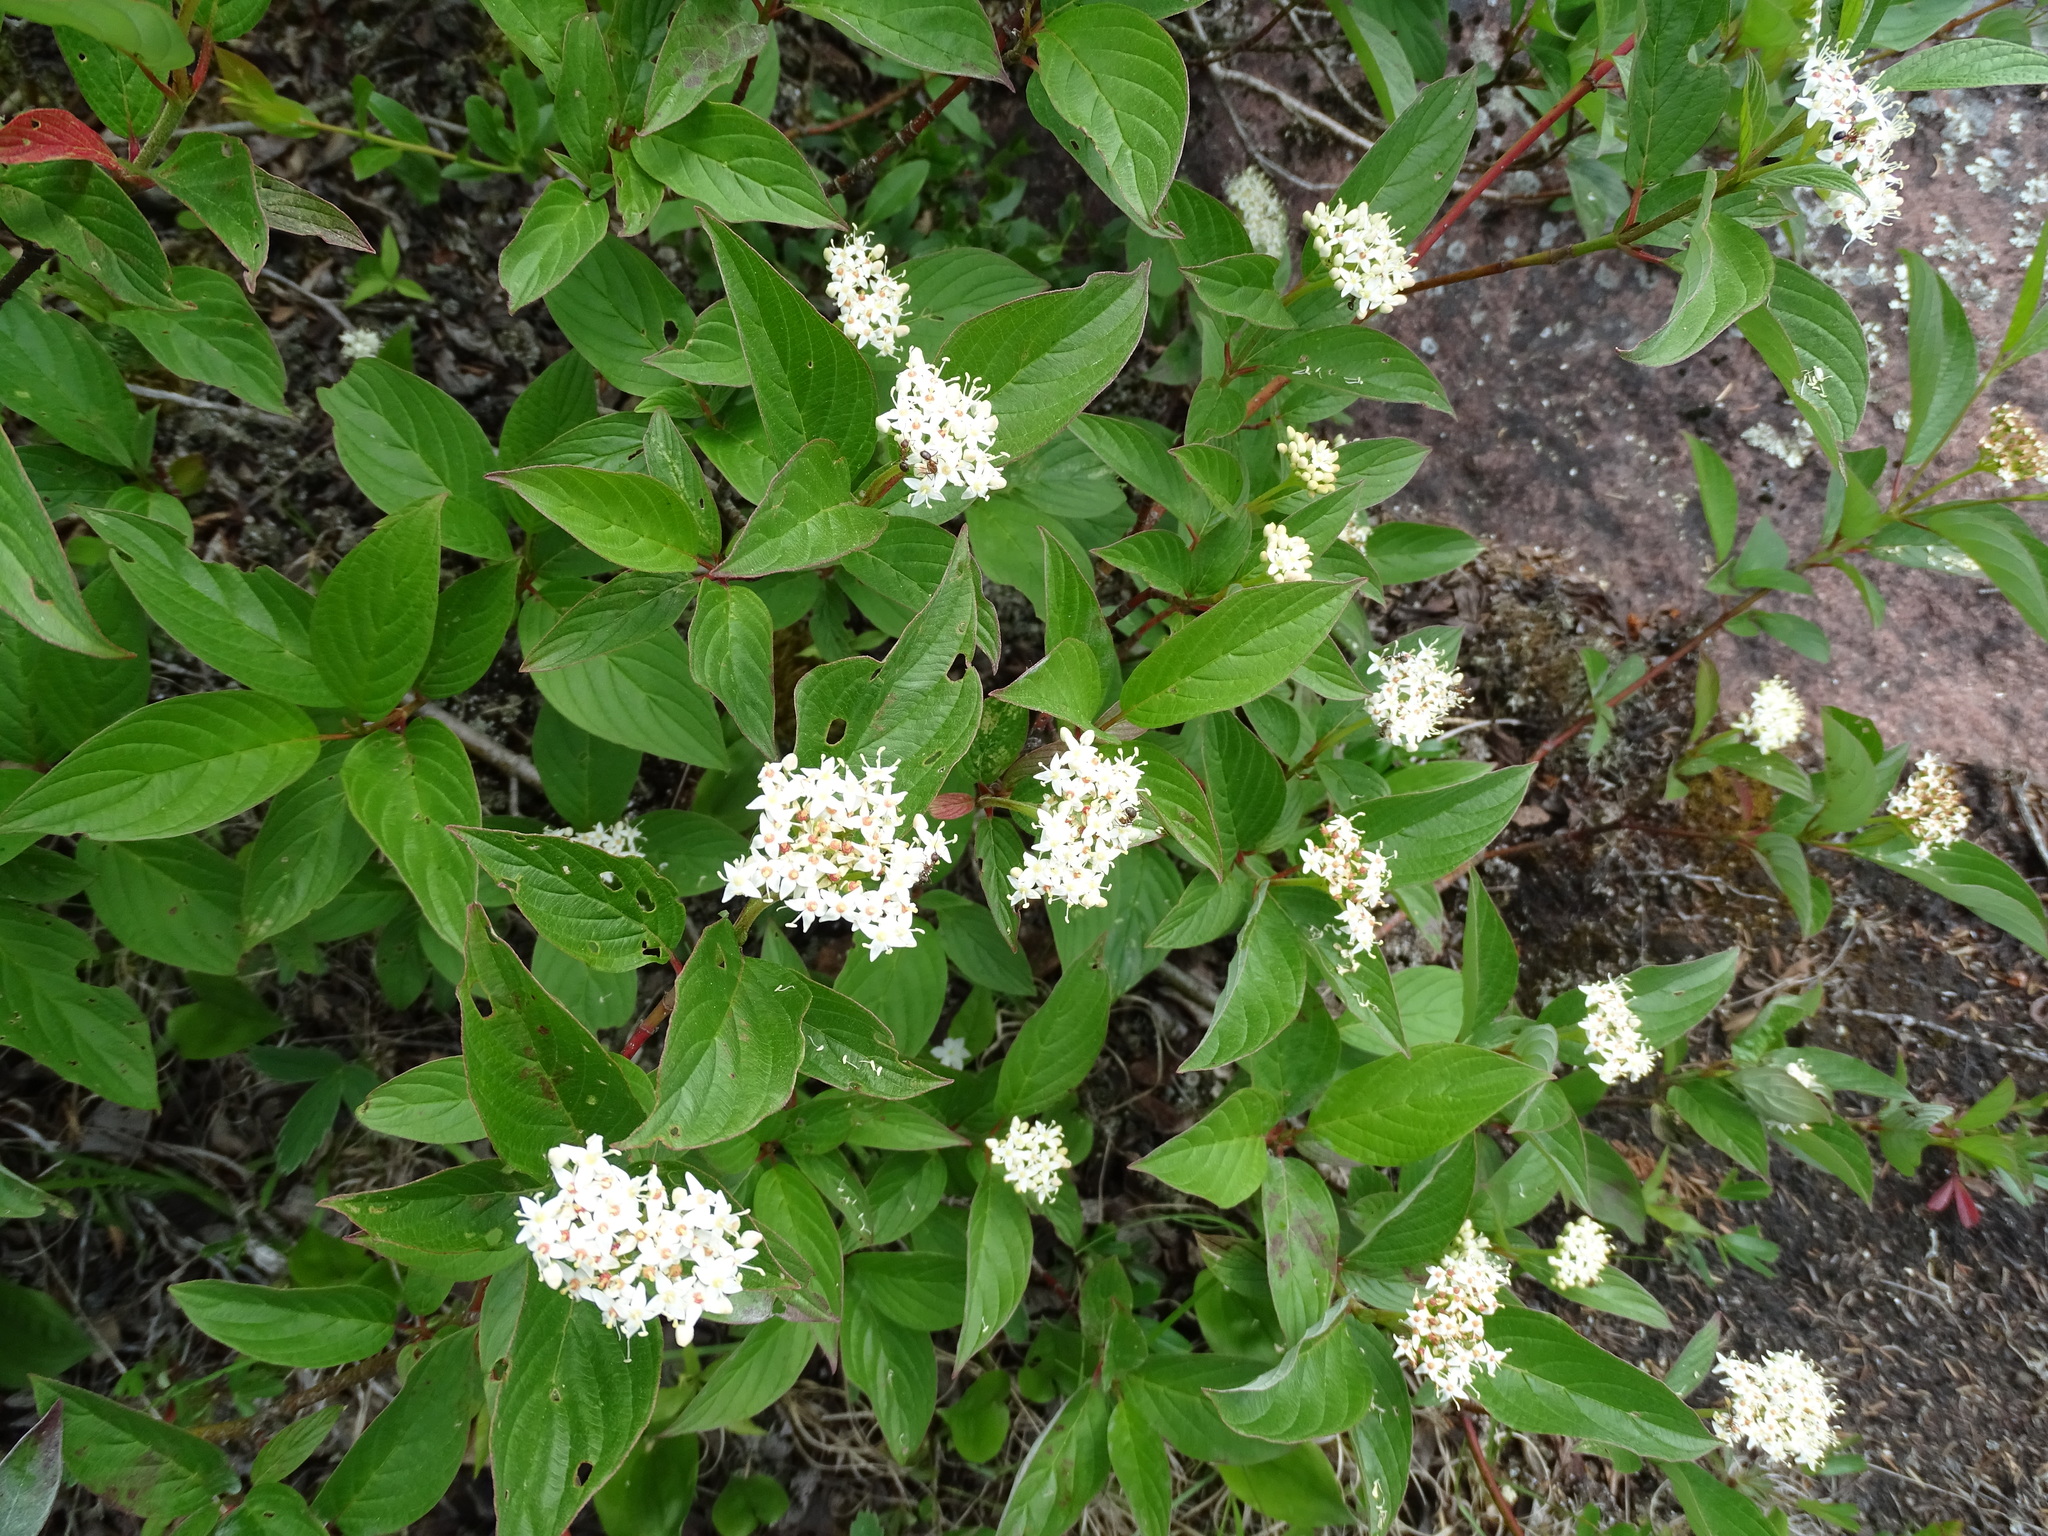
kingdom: Plantae
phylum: Tracheophyta
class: Magnoliopsida
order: Cornales
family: Cornaceae
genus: Cornus
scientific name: Cornus sericea
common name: Red-osier dogwood
